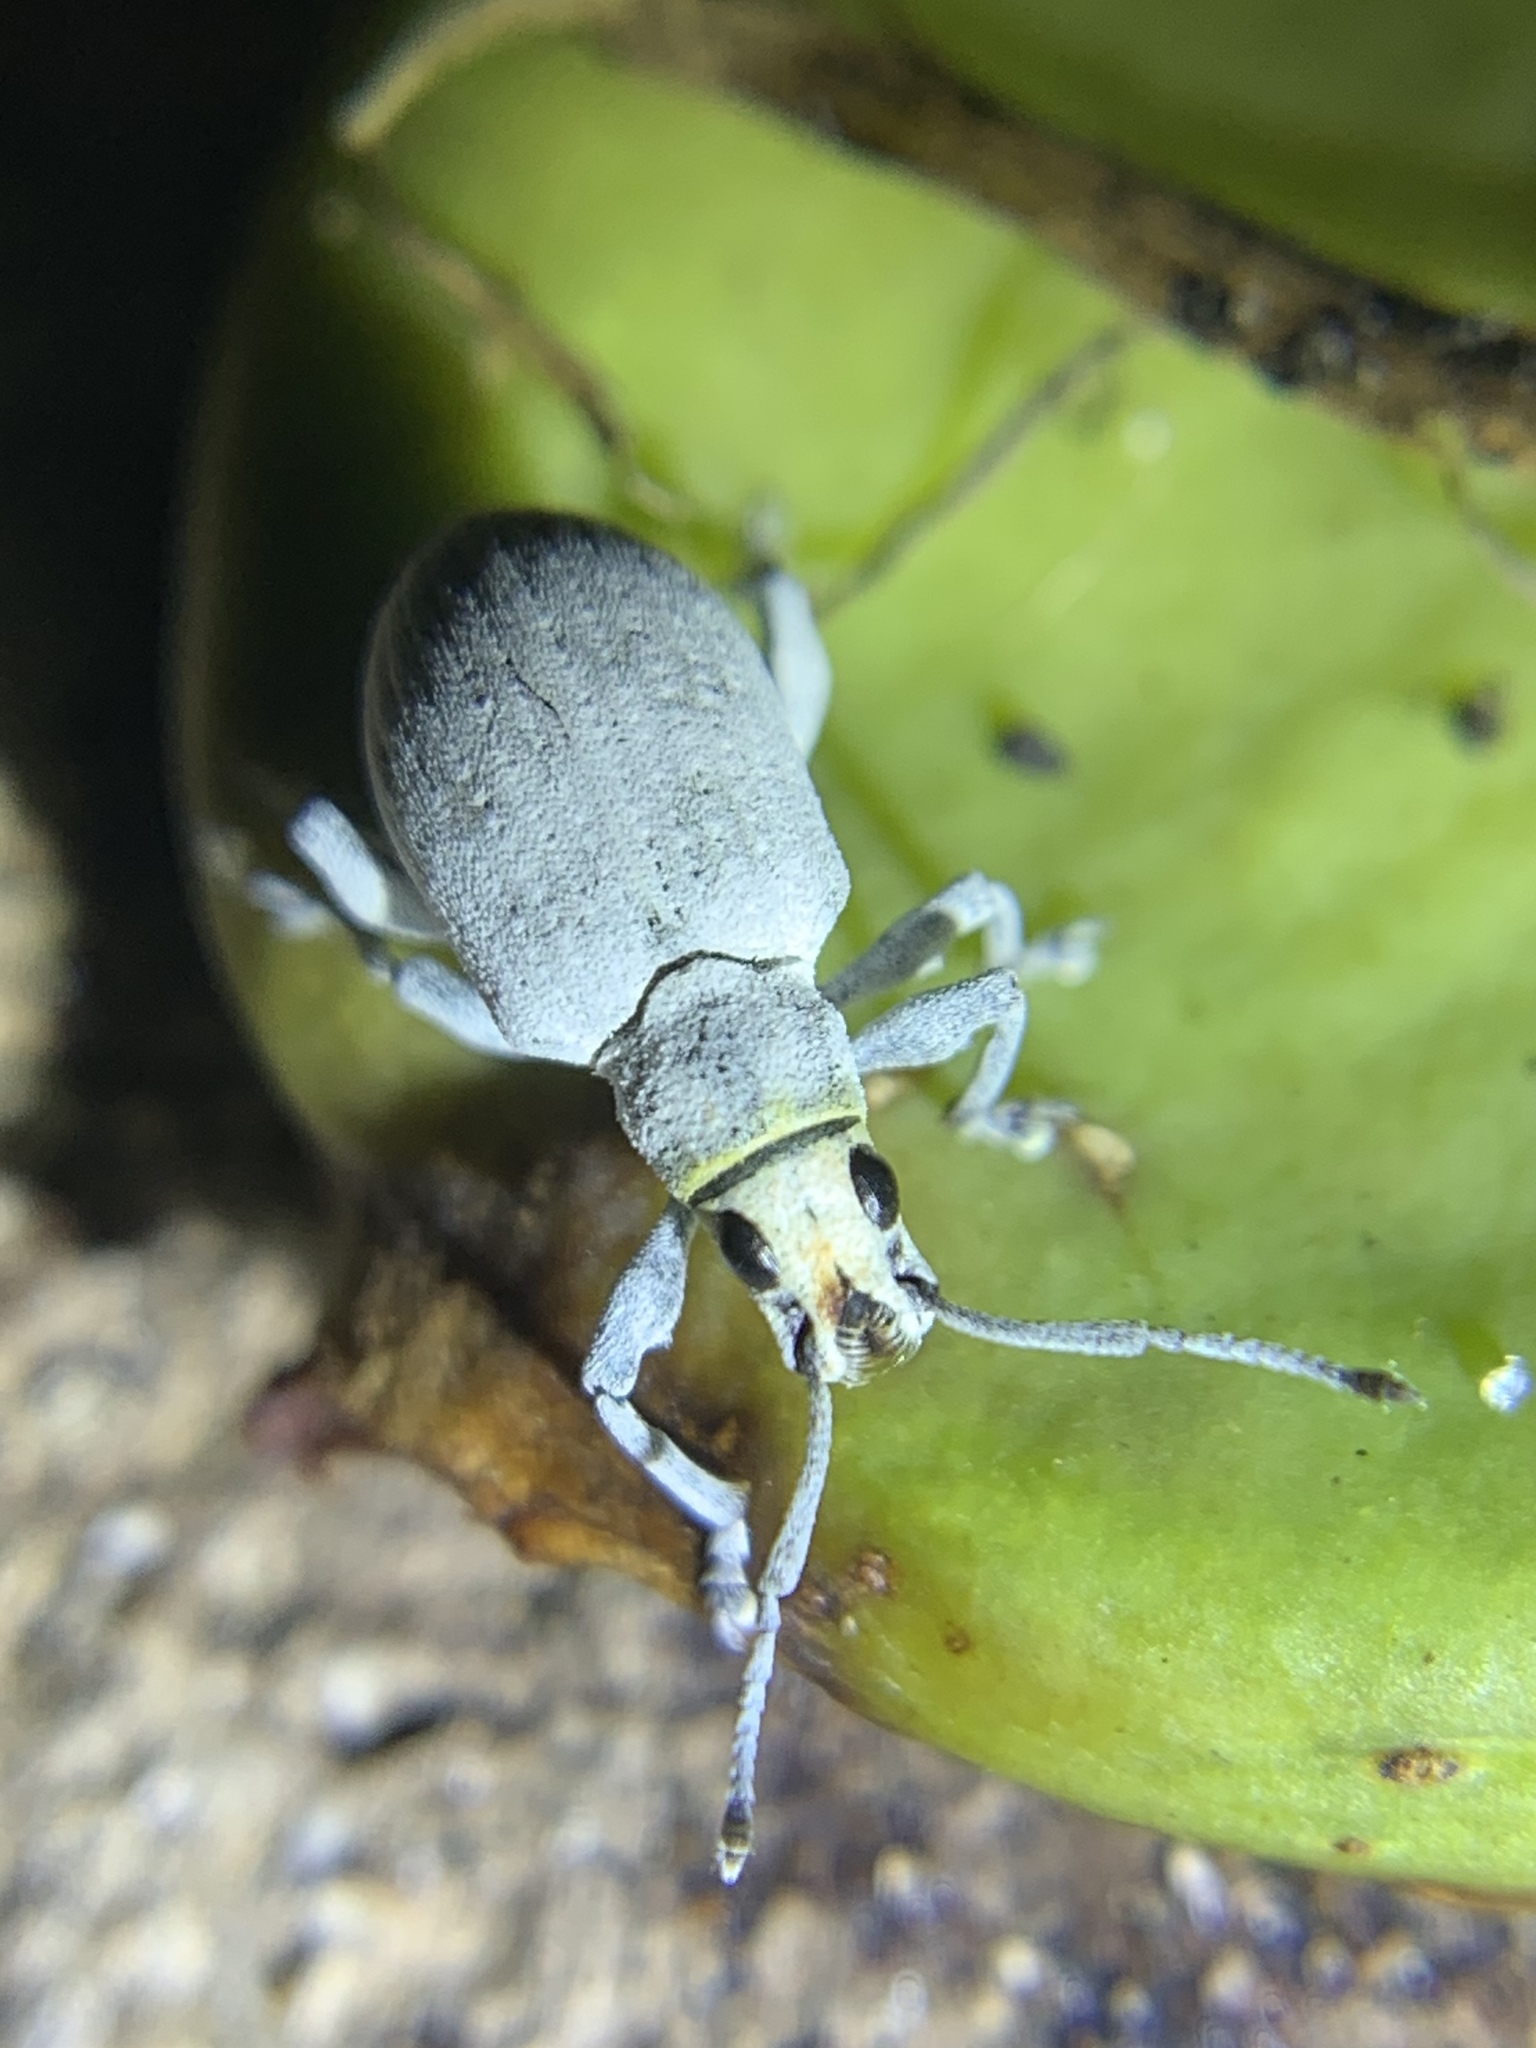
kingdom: Animalia
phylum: Arthropoda
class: Insecta
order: Coleoptera
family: Curculionidae
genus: Myllocerus
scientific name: Myllocerus undecimpustulatus
